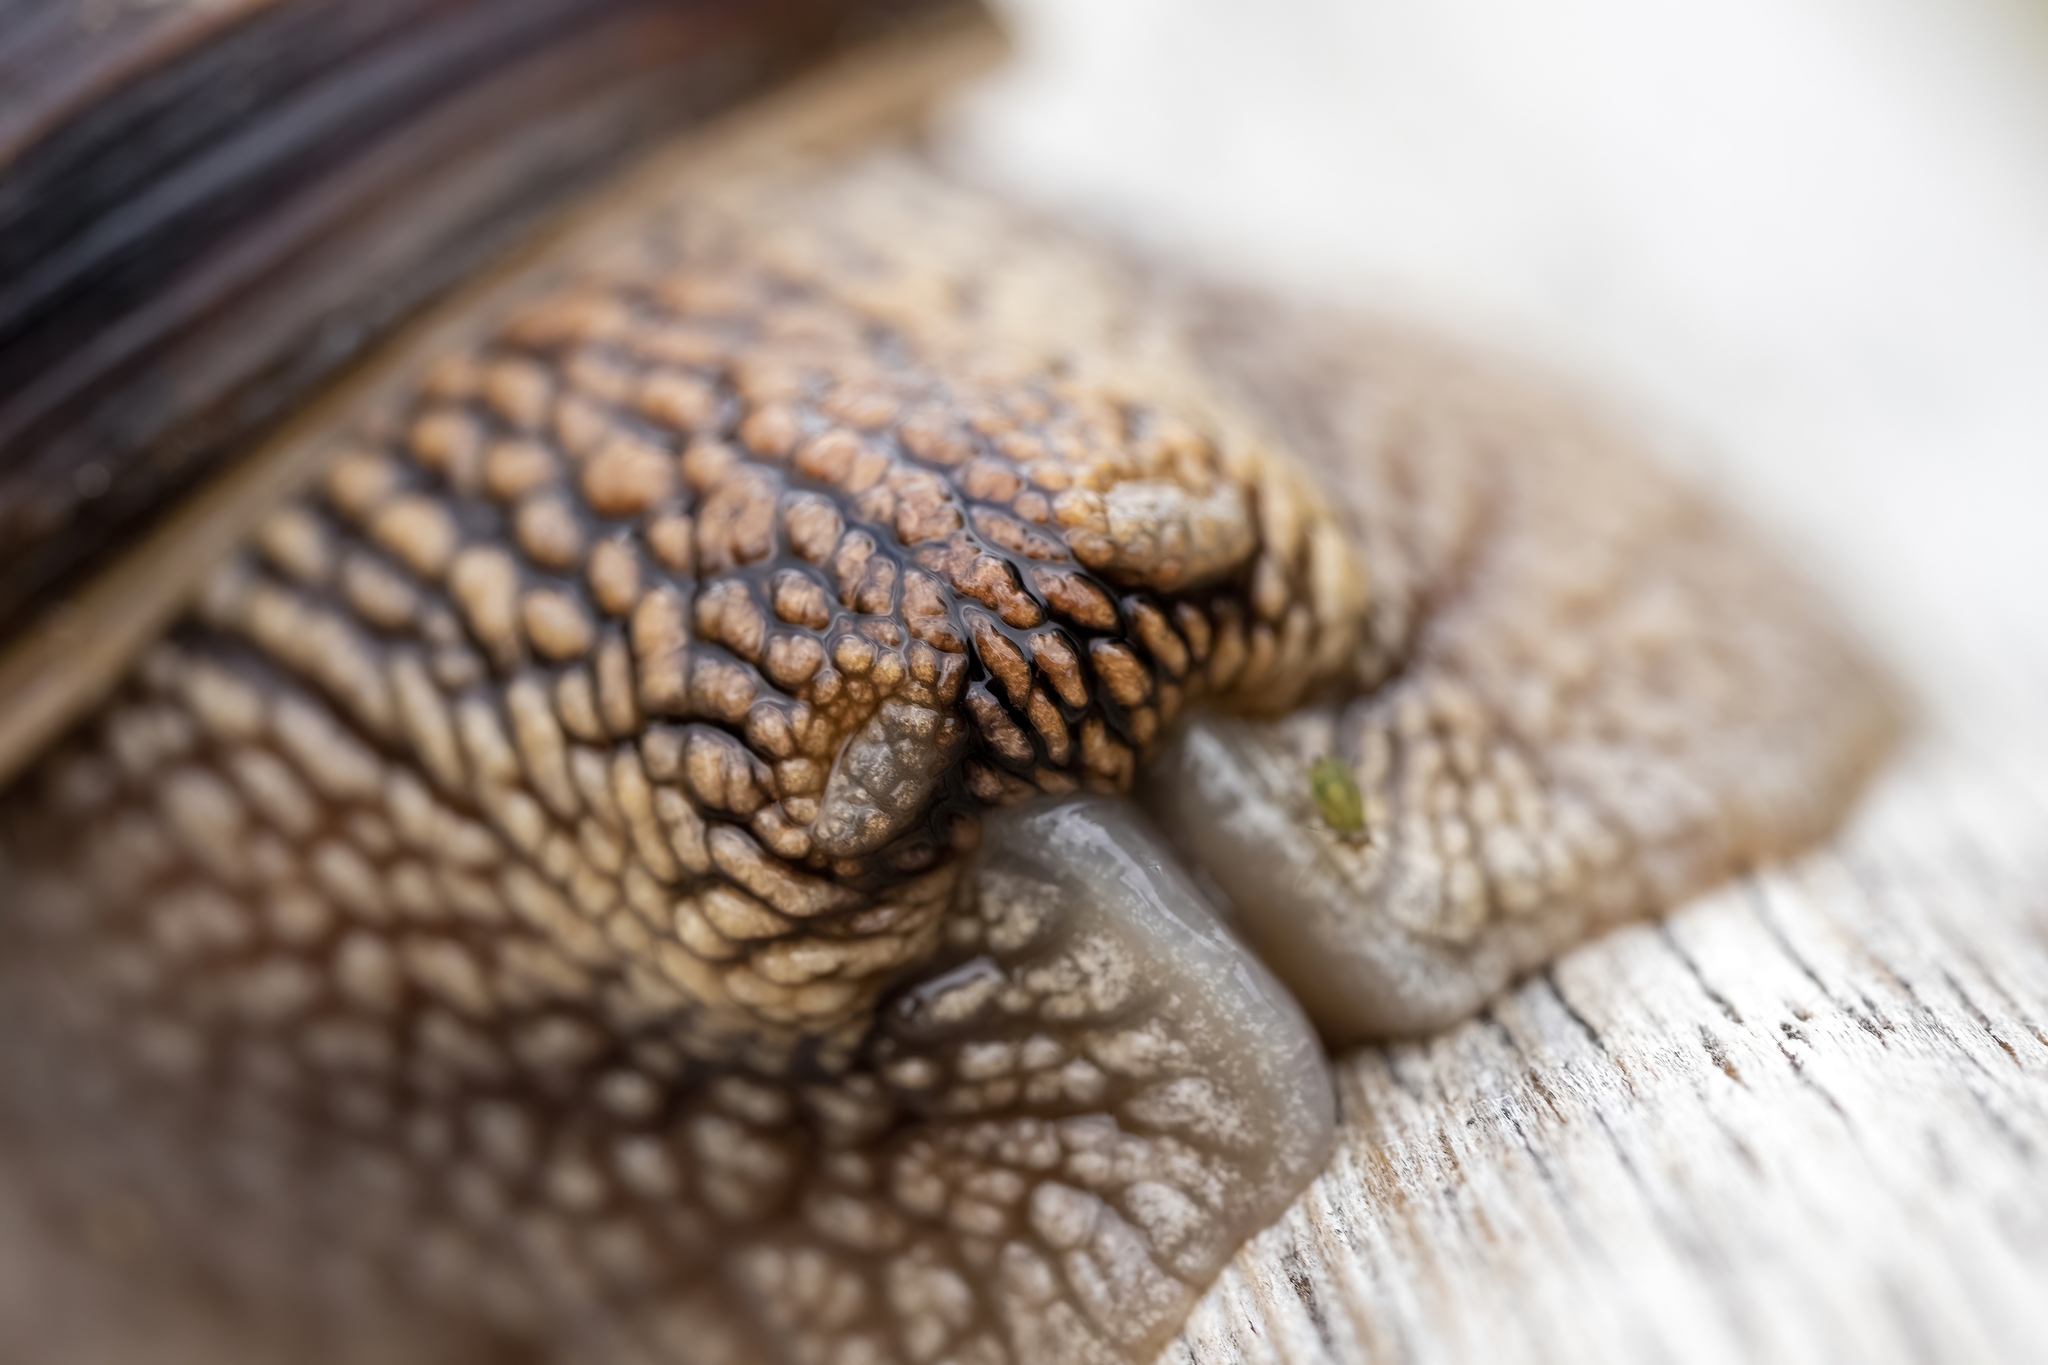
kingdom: Animalia
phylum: Mollusca
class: Gastropoda
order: Stylommatophora
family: Helicidae
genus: Helix
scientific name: Helix lucorum
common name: Turkish snail
